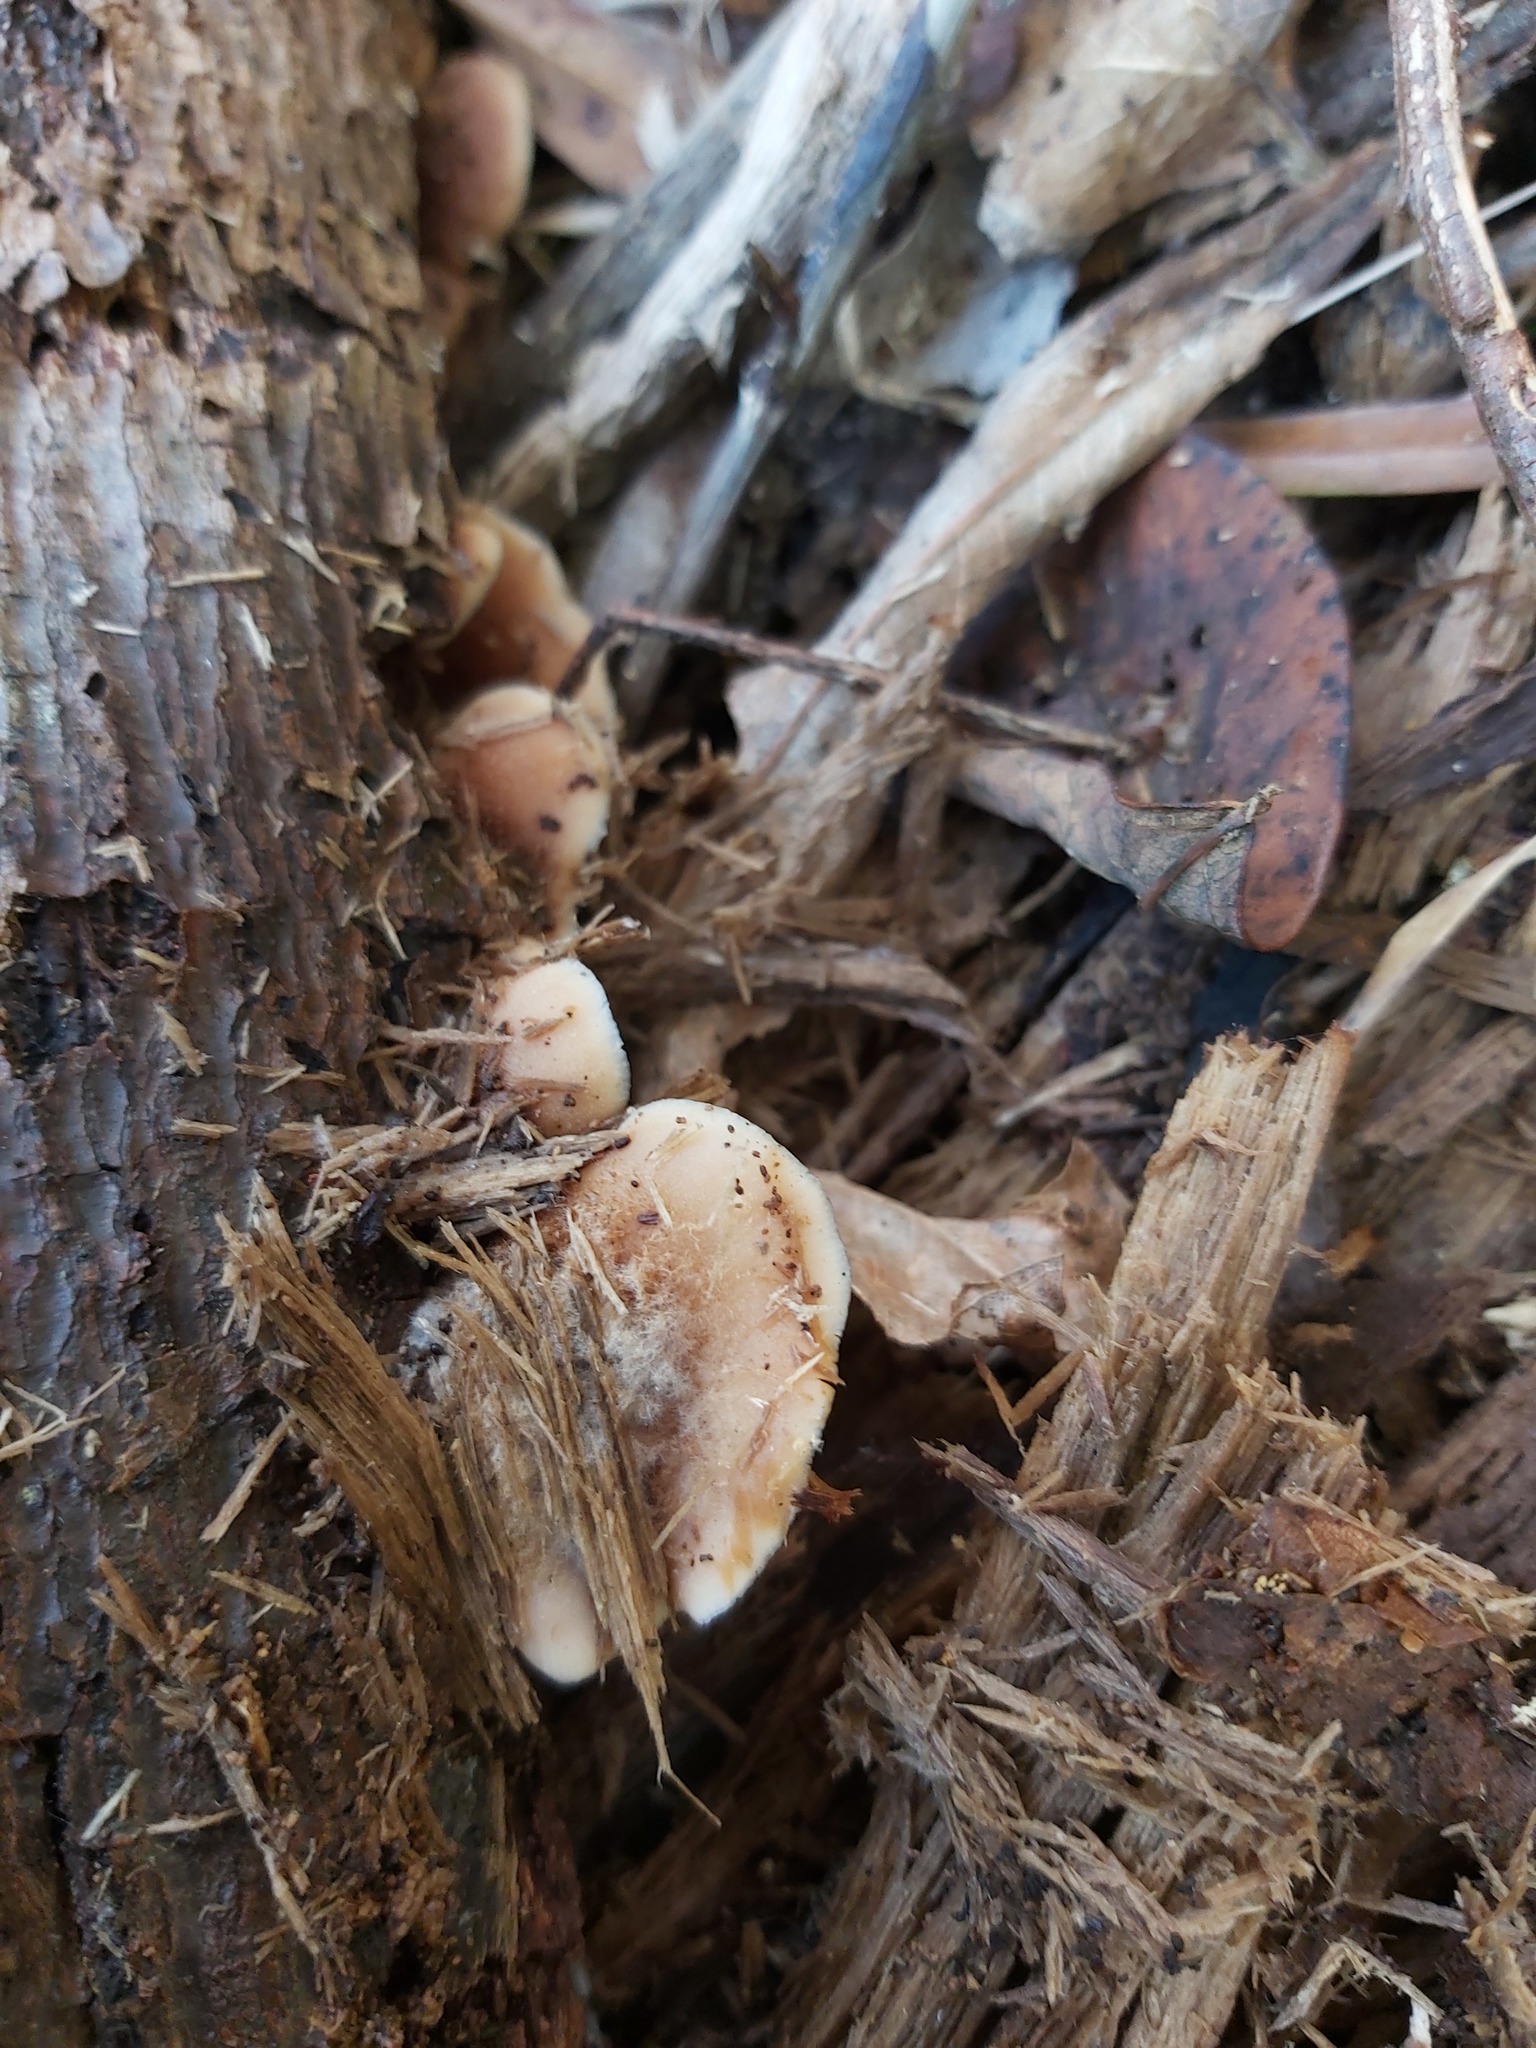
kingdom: Fungi
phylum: Basidiomycota
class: Agaricomycetes
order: Agaricales
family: Crepidotaceae
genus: Crepidotus
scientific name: Crepidotus mollis
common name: Peeling oysterling
